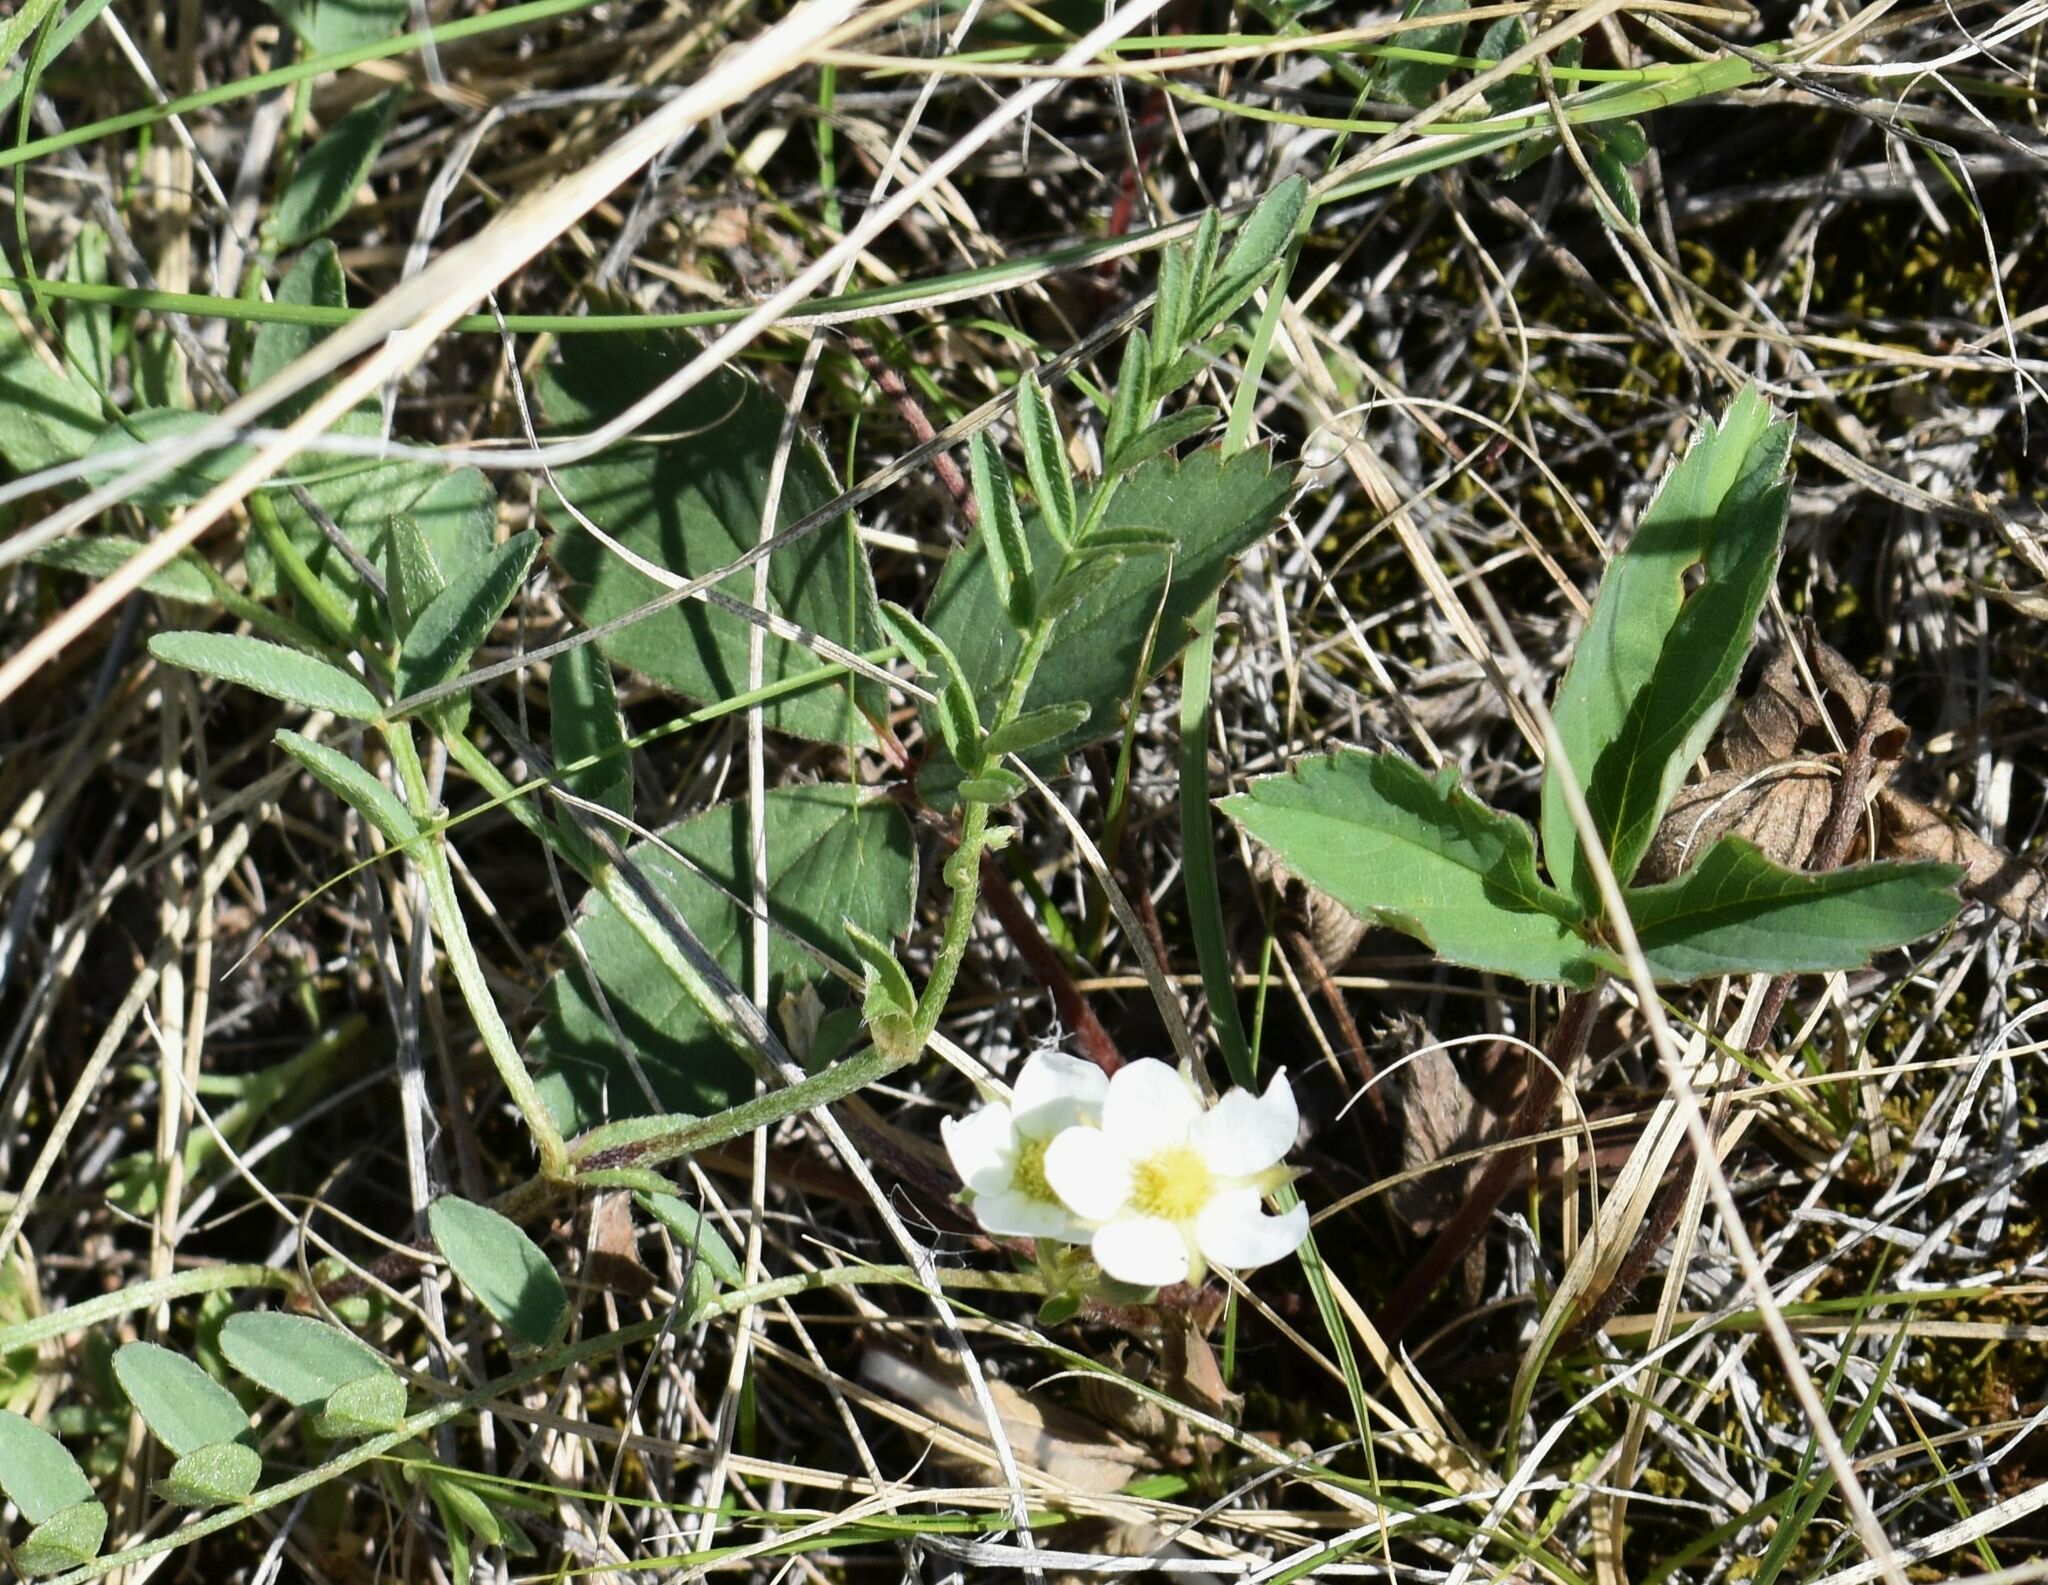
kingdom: Plantae
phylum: Tracheophyta
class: Magnoliopsida
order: Rosales
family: Rosaceae
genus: Fragaria
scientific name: Fragaria virginiana
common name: Thickleaved wild strawberry
